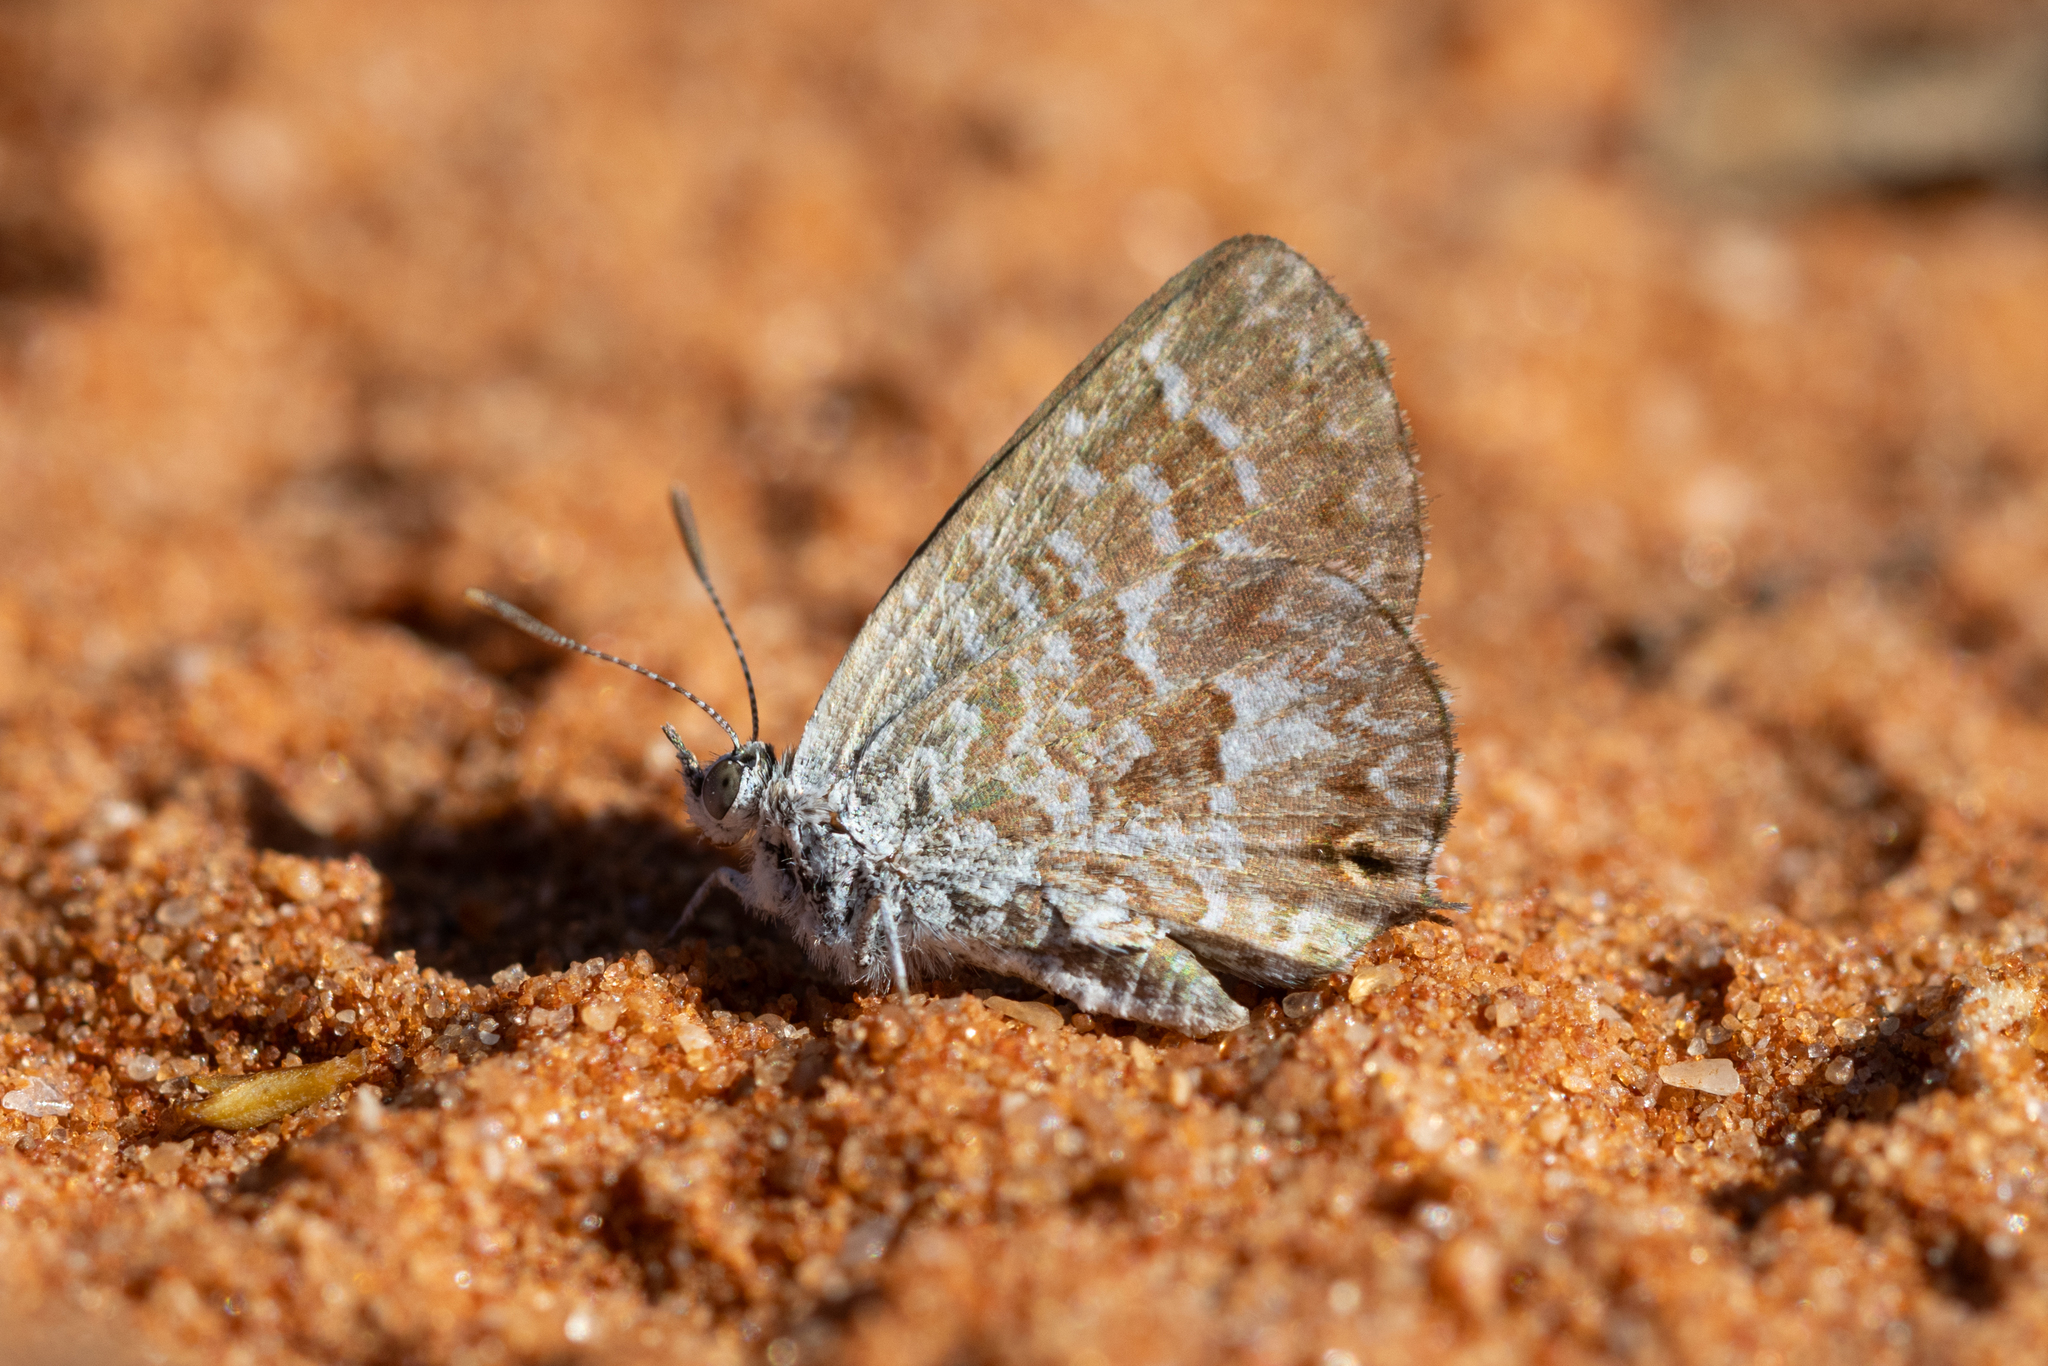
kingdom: Animalia
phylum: Arthropoda
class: Insecta
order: Lepidoptera
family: Lycaenidae
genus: Theclinesthes
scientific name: Theclinesthes serpentata
